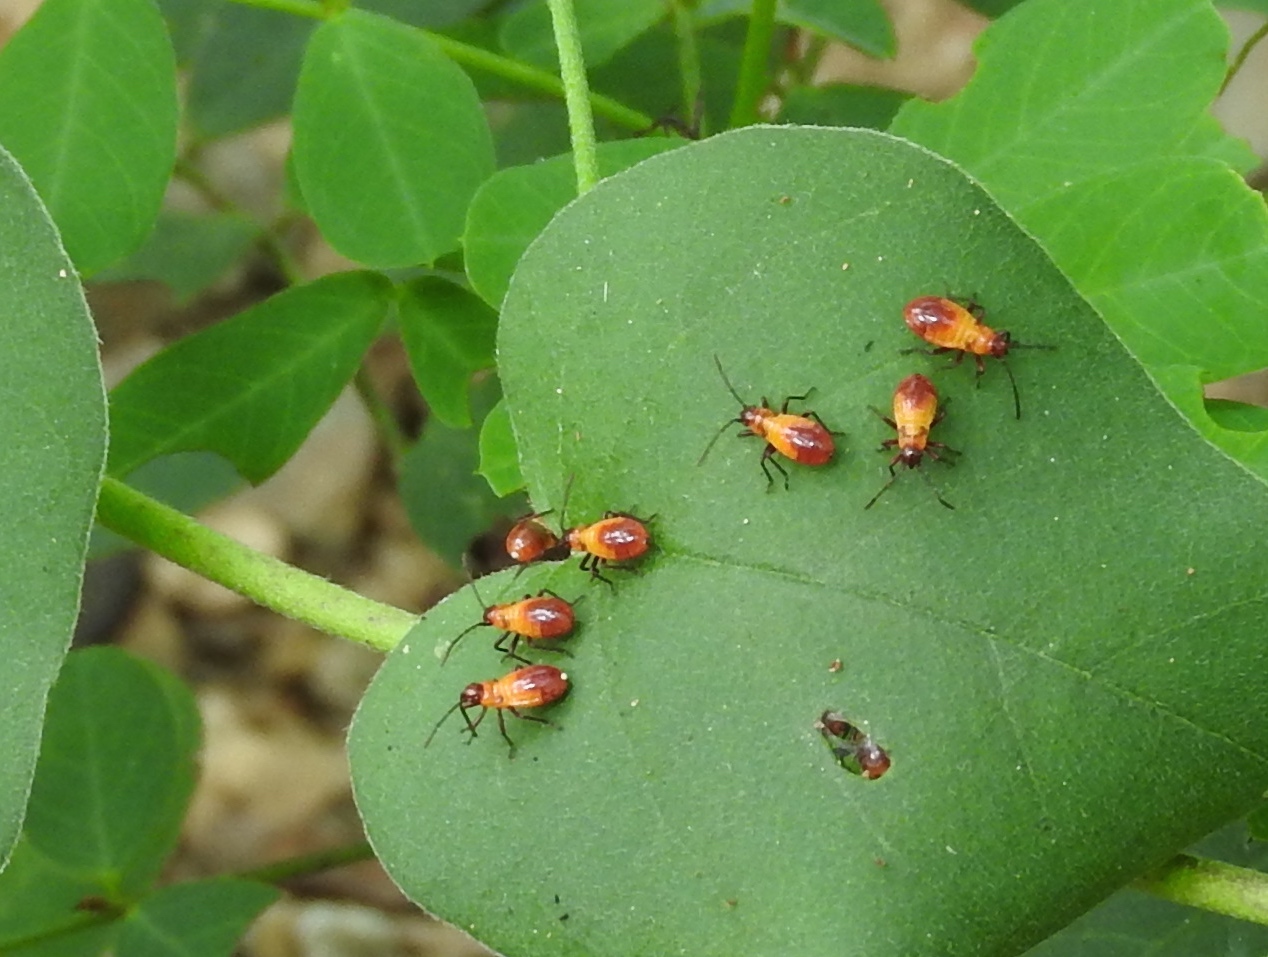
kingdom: Animalia
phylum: Arthropoda
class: Insecta
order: Hemiptera
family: Lygaeidae
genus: Oncopeltus
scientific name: Oncopeltus
